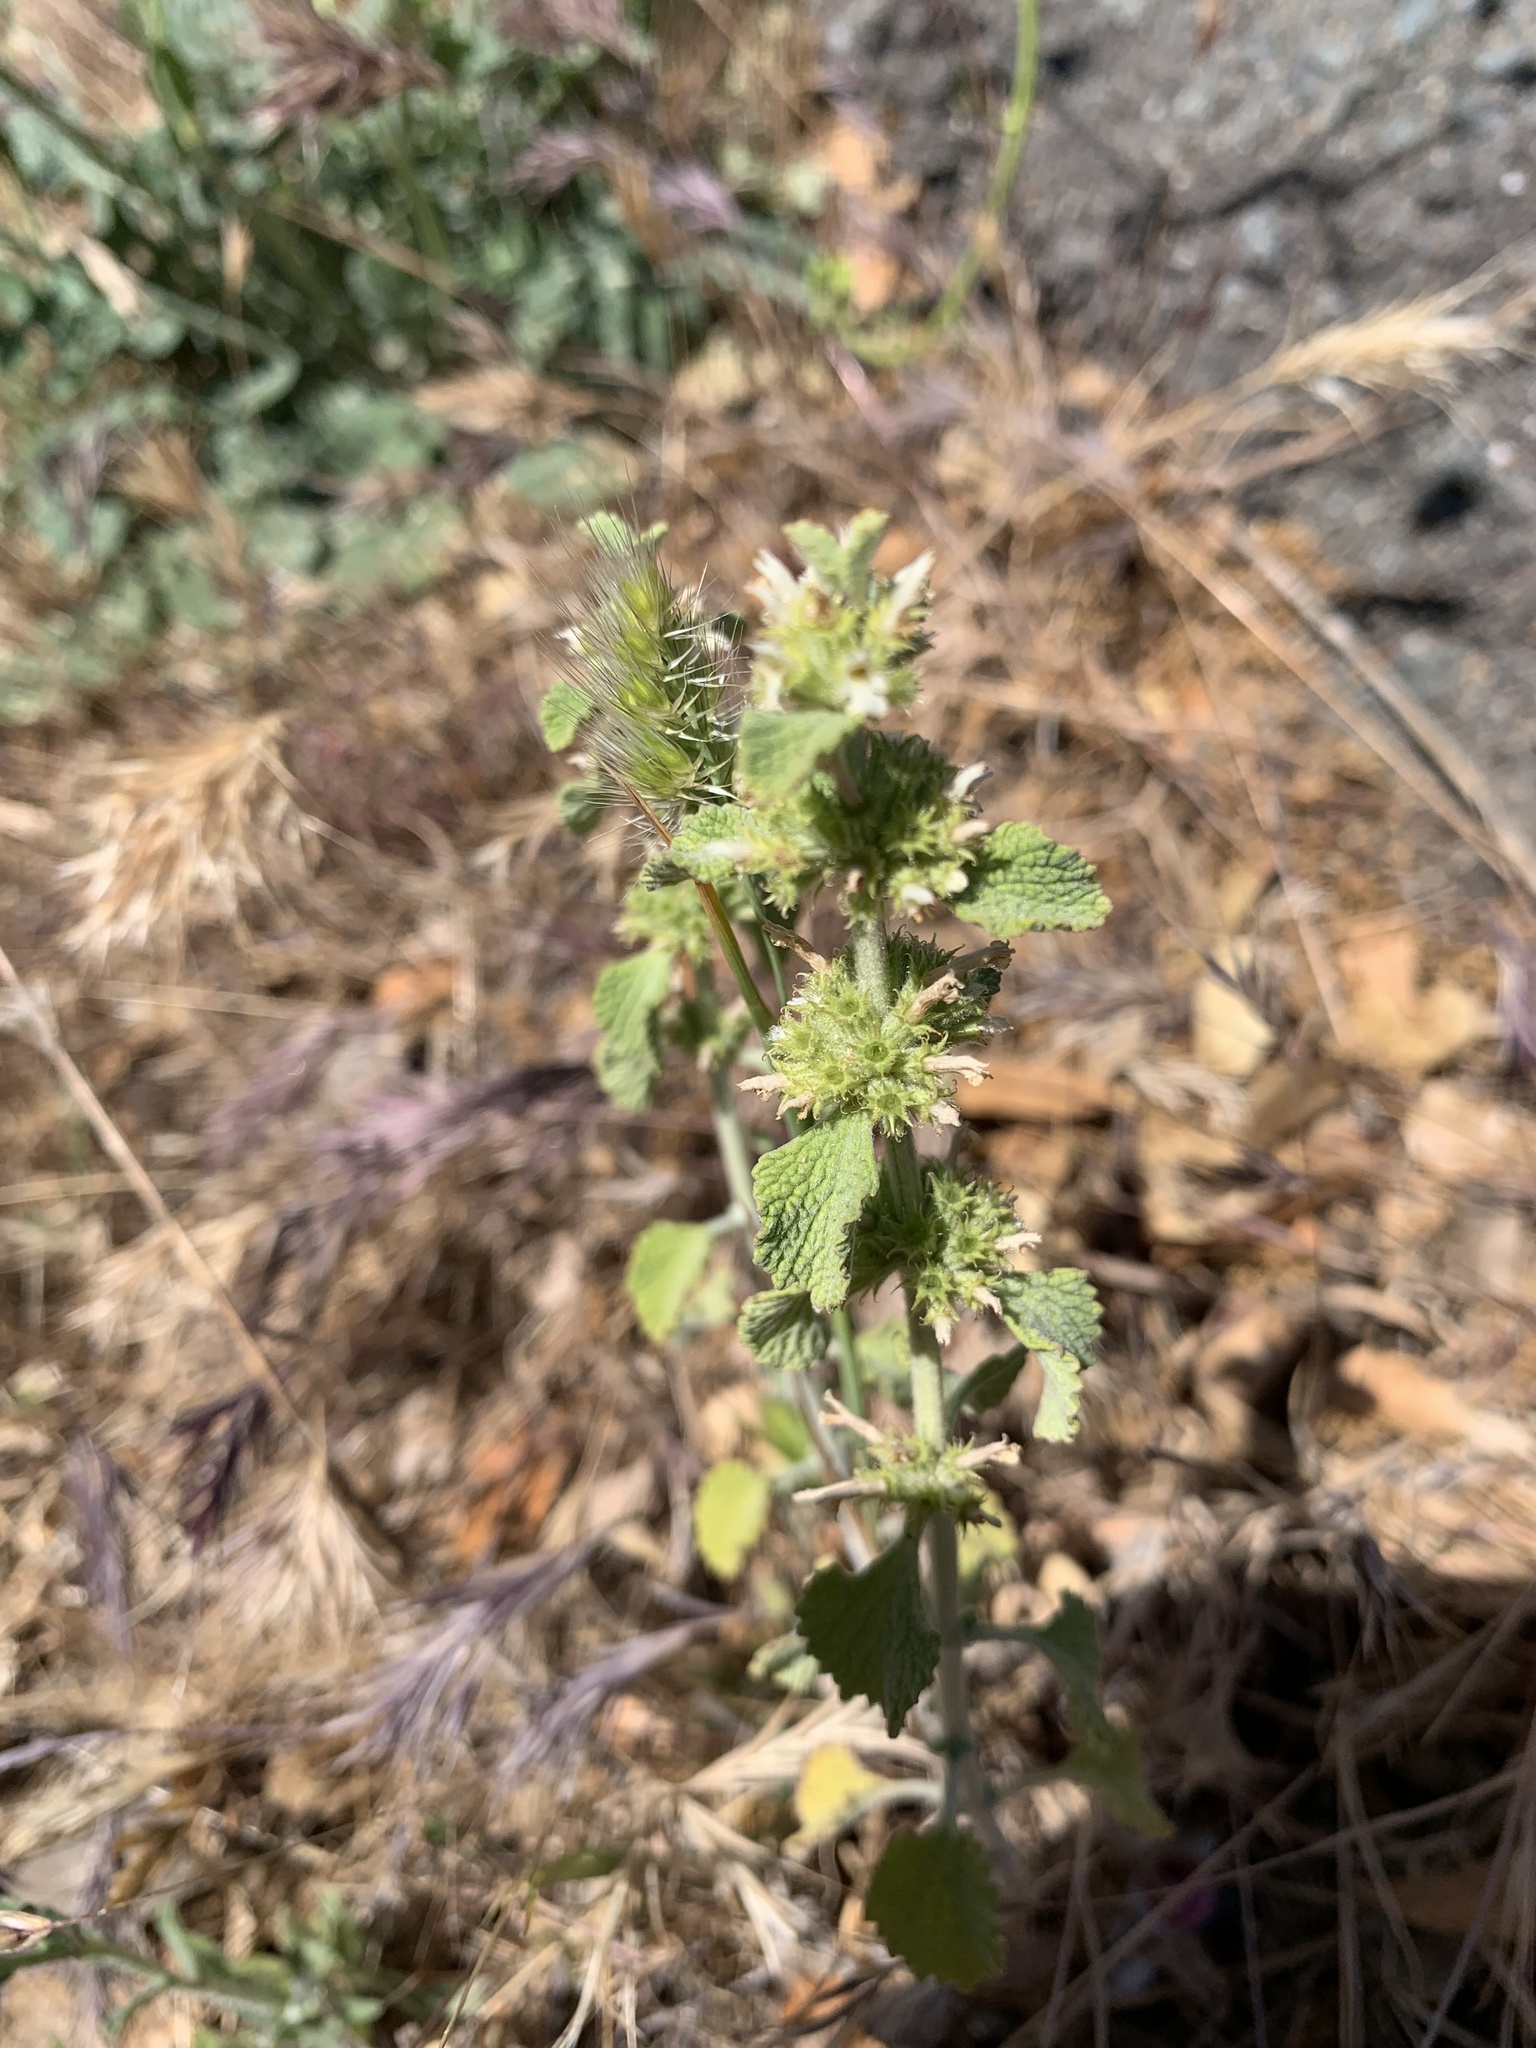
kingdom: Plantae
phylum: Tracheophyta
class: Magnoliopsida
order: Lamiales
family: Lamiaceae
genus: Marrubium
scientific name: Marrubium vulgare
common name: Horehound
